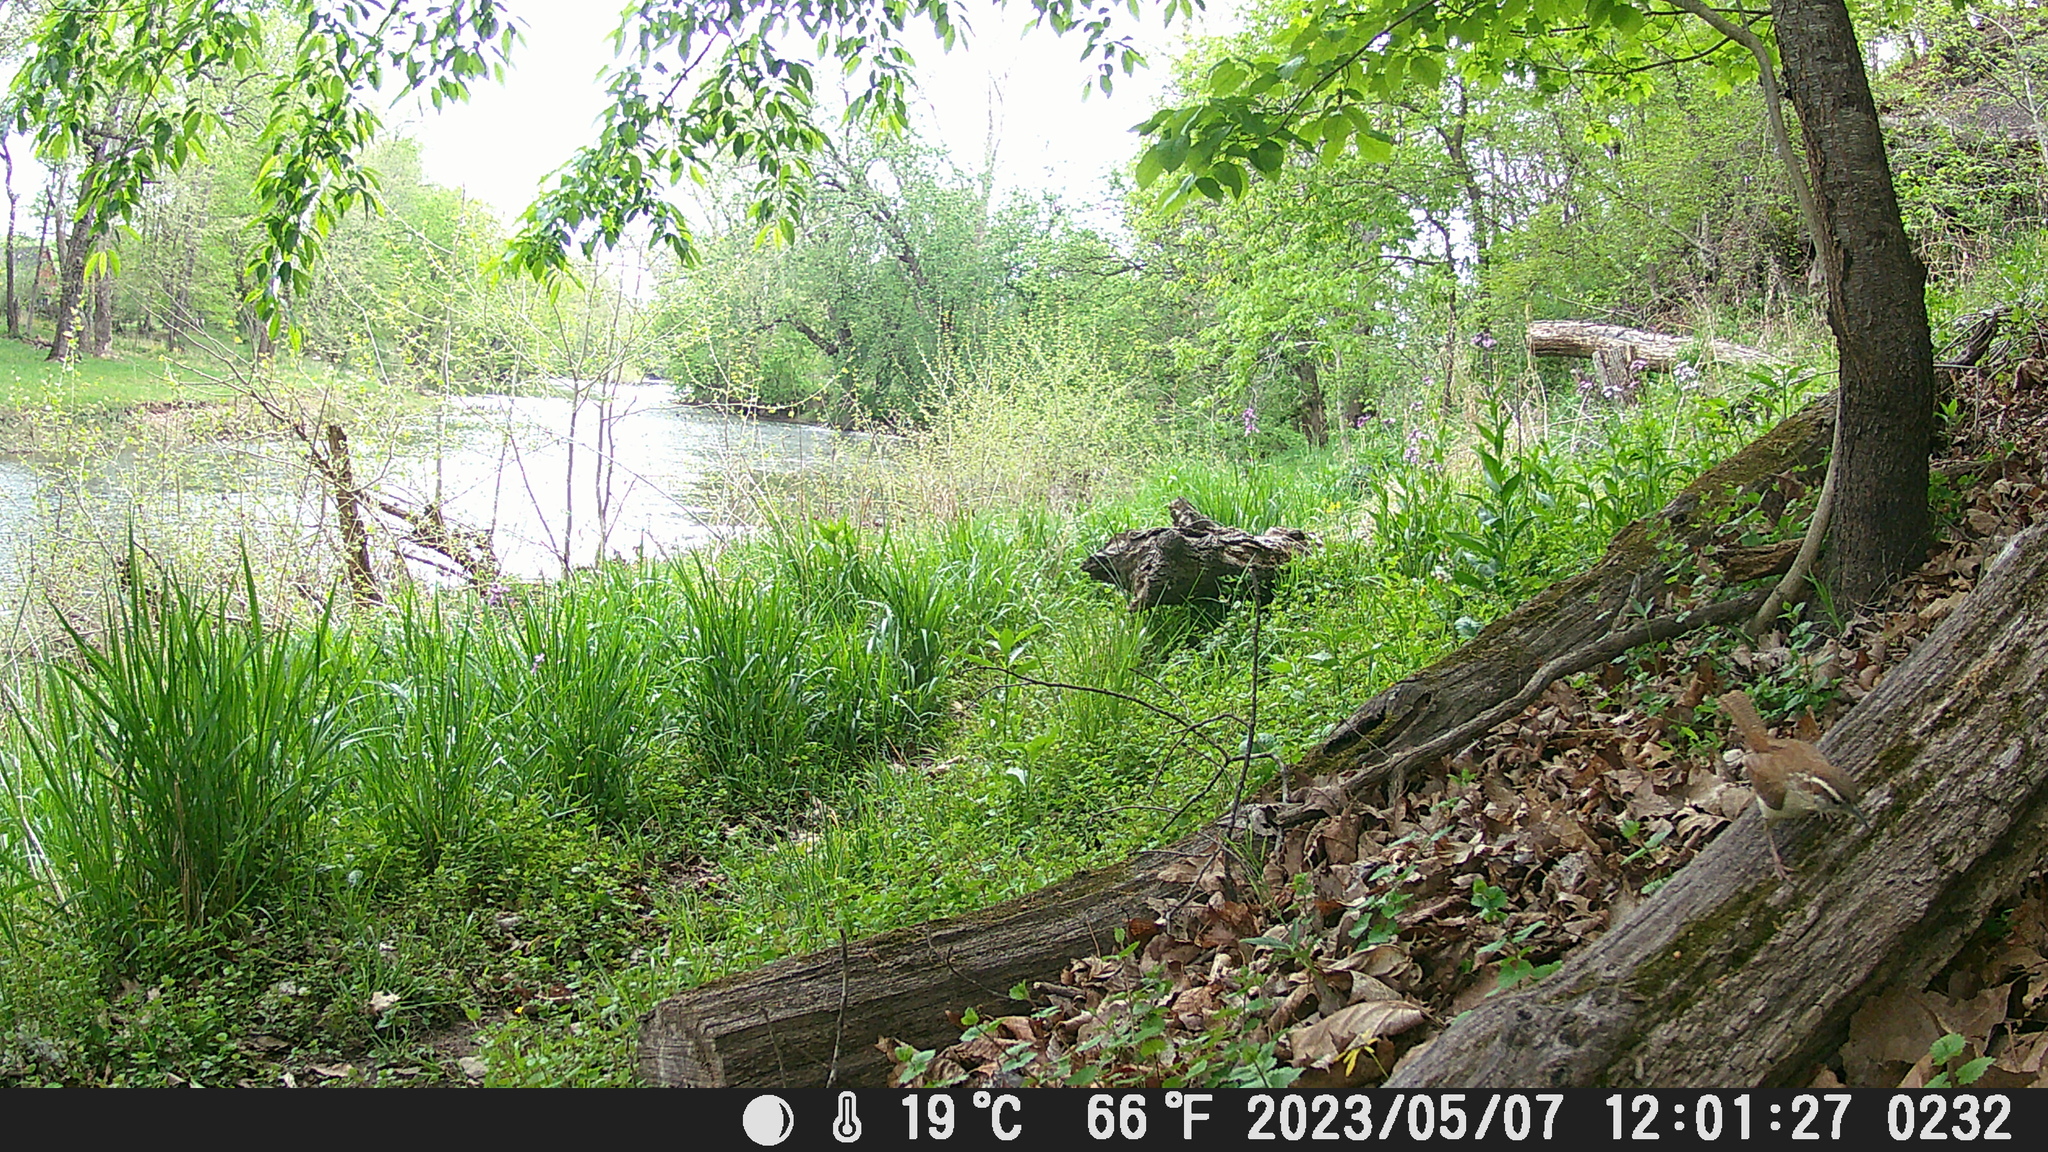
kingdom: Animalia
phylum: Chordata
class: Aves
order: Passeriformes
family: Troglodytidae
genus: Thryothorus
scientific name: Thryothorus ludovicianus
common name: Carolina wren
